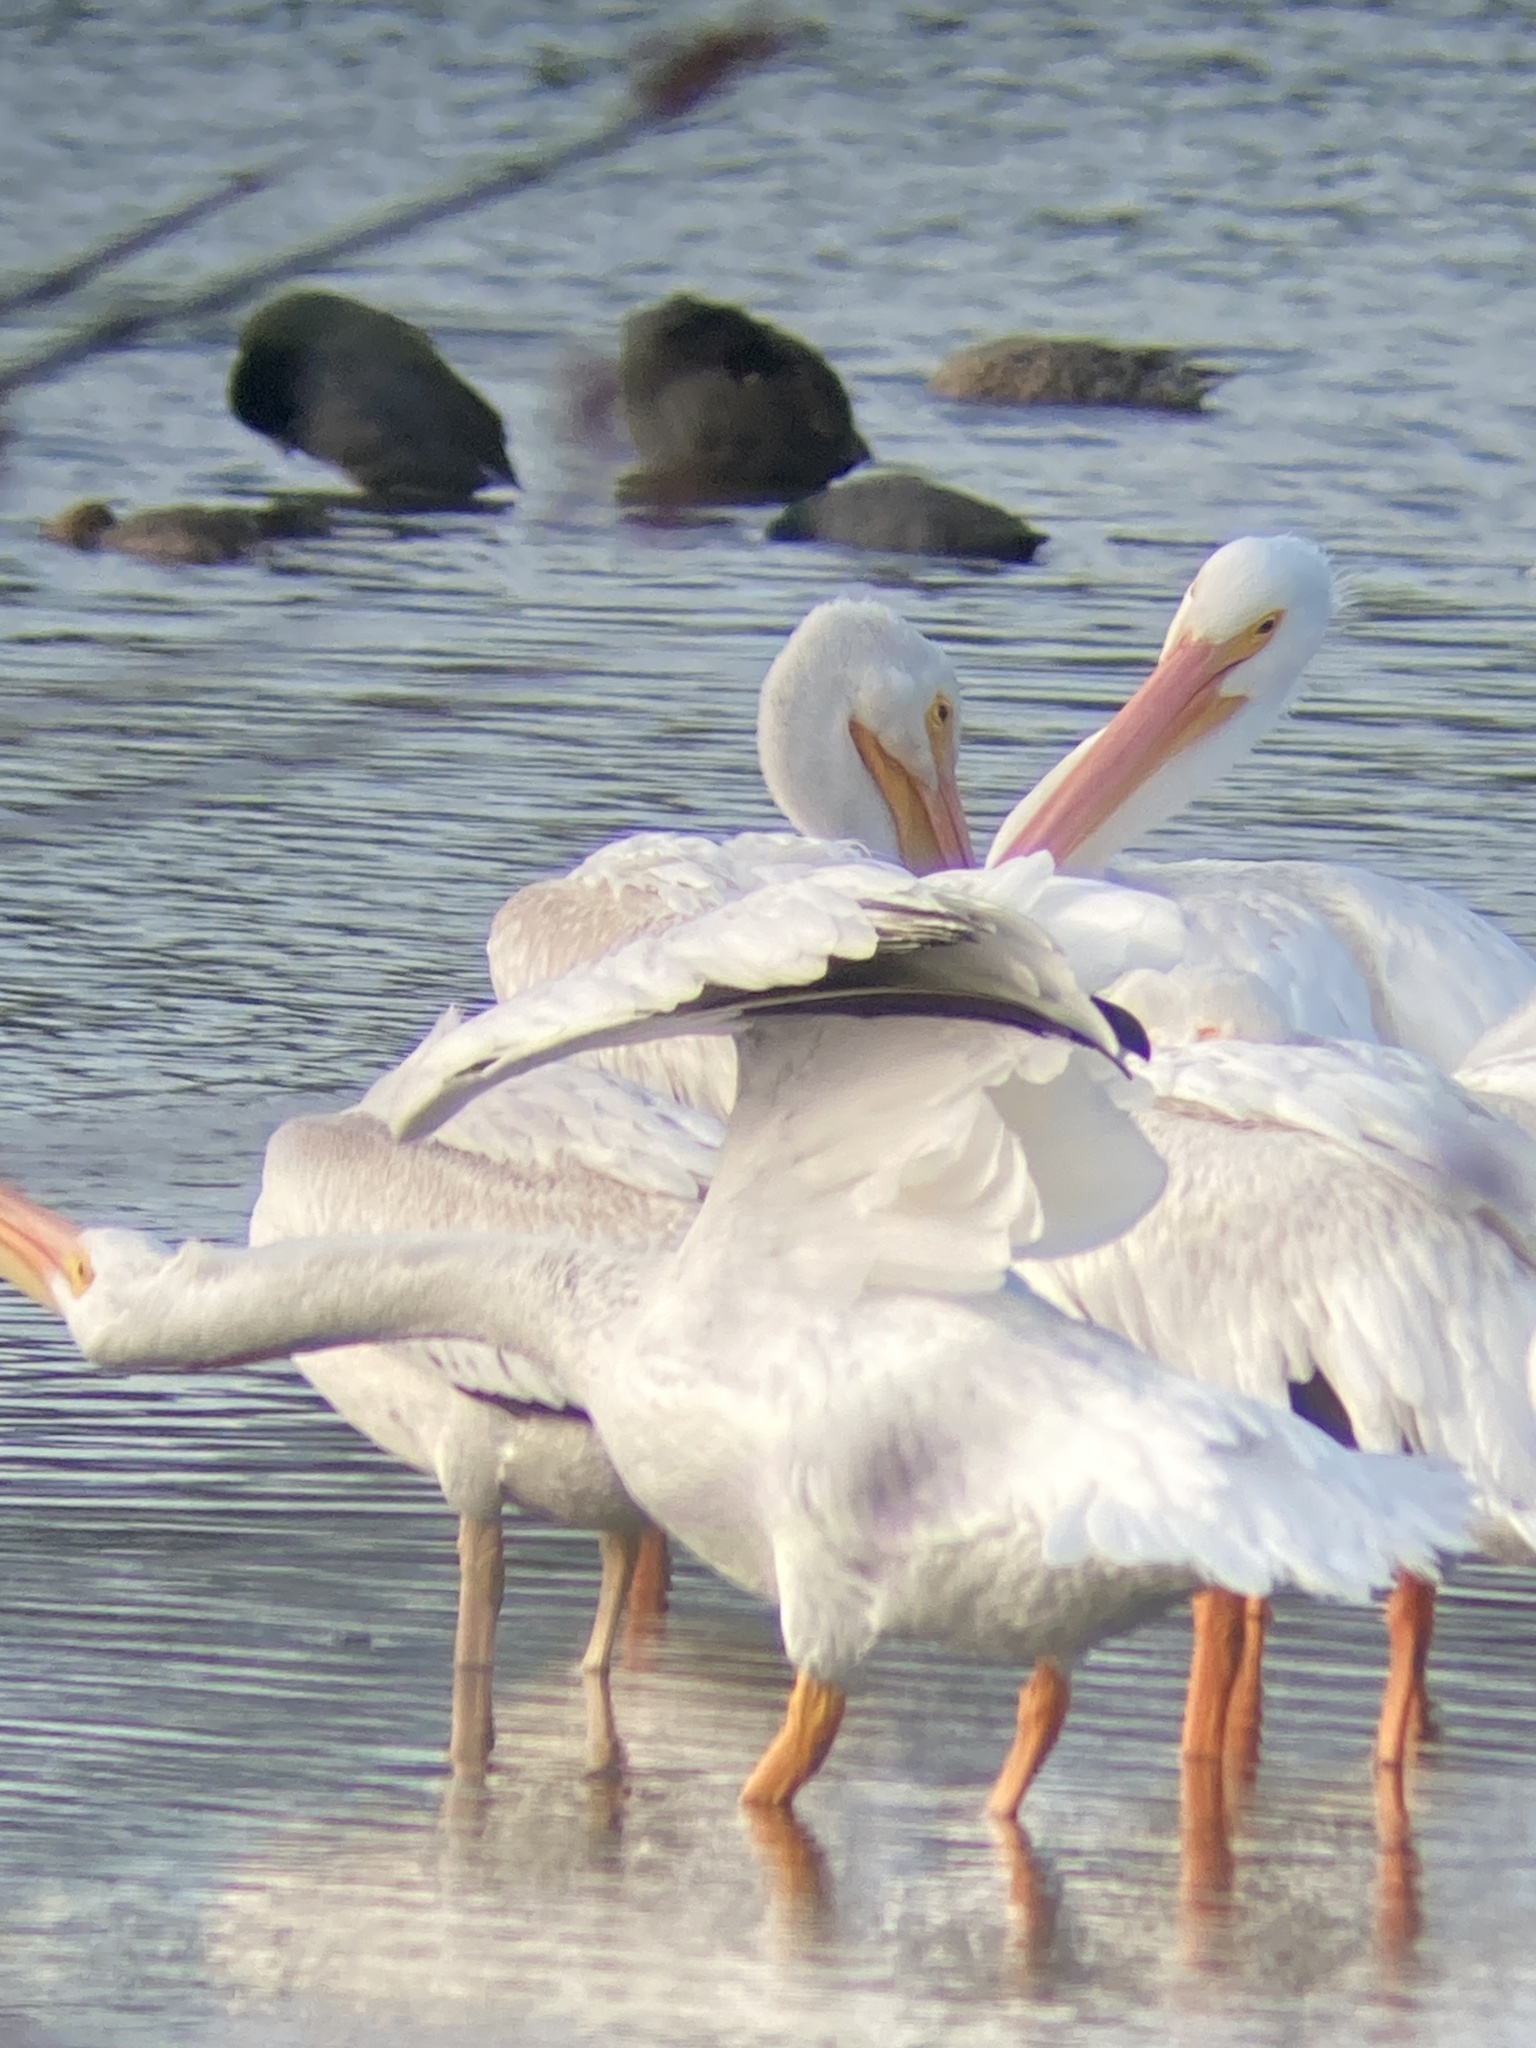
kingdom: Animalia
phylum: Chordata
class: Aves
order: Pelecaniformes
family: Pelecanidae
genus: Pelecanus
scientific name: Pelecanus erythrorhynchos
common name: American white pelican
